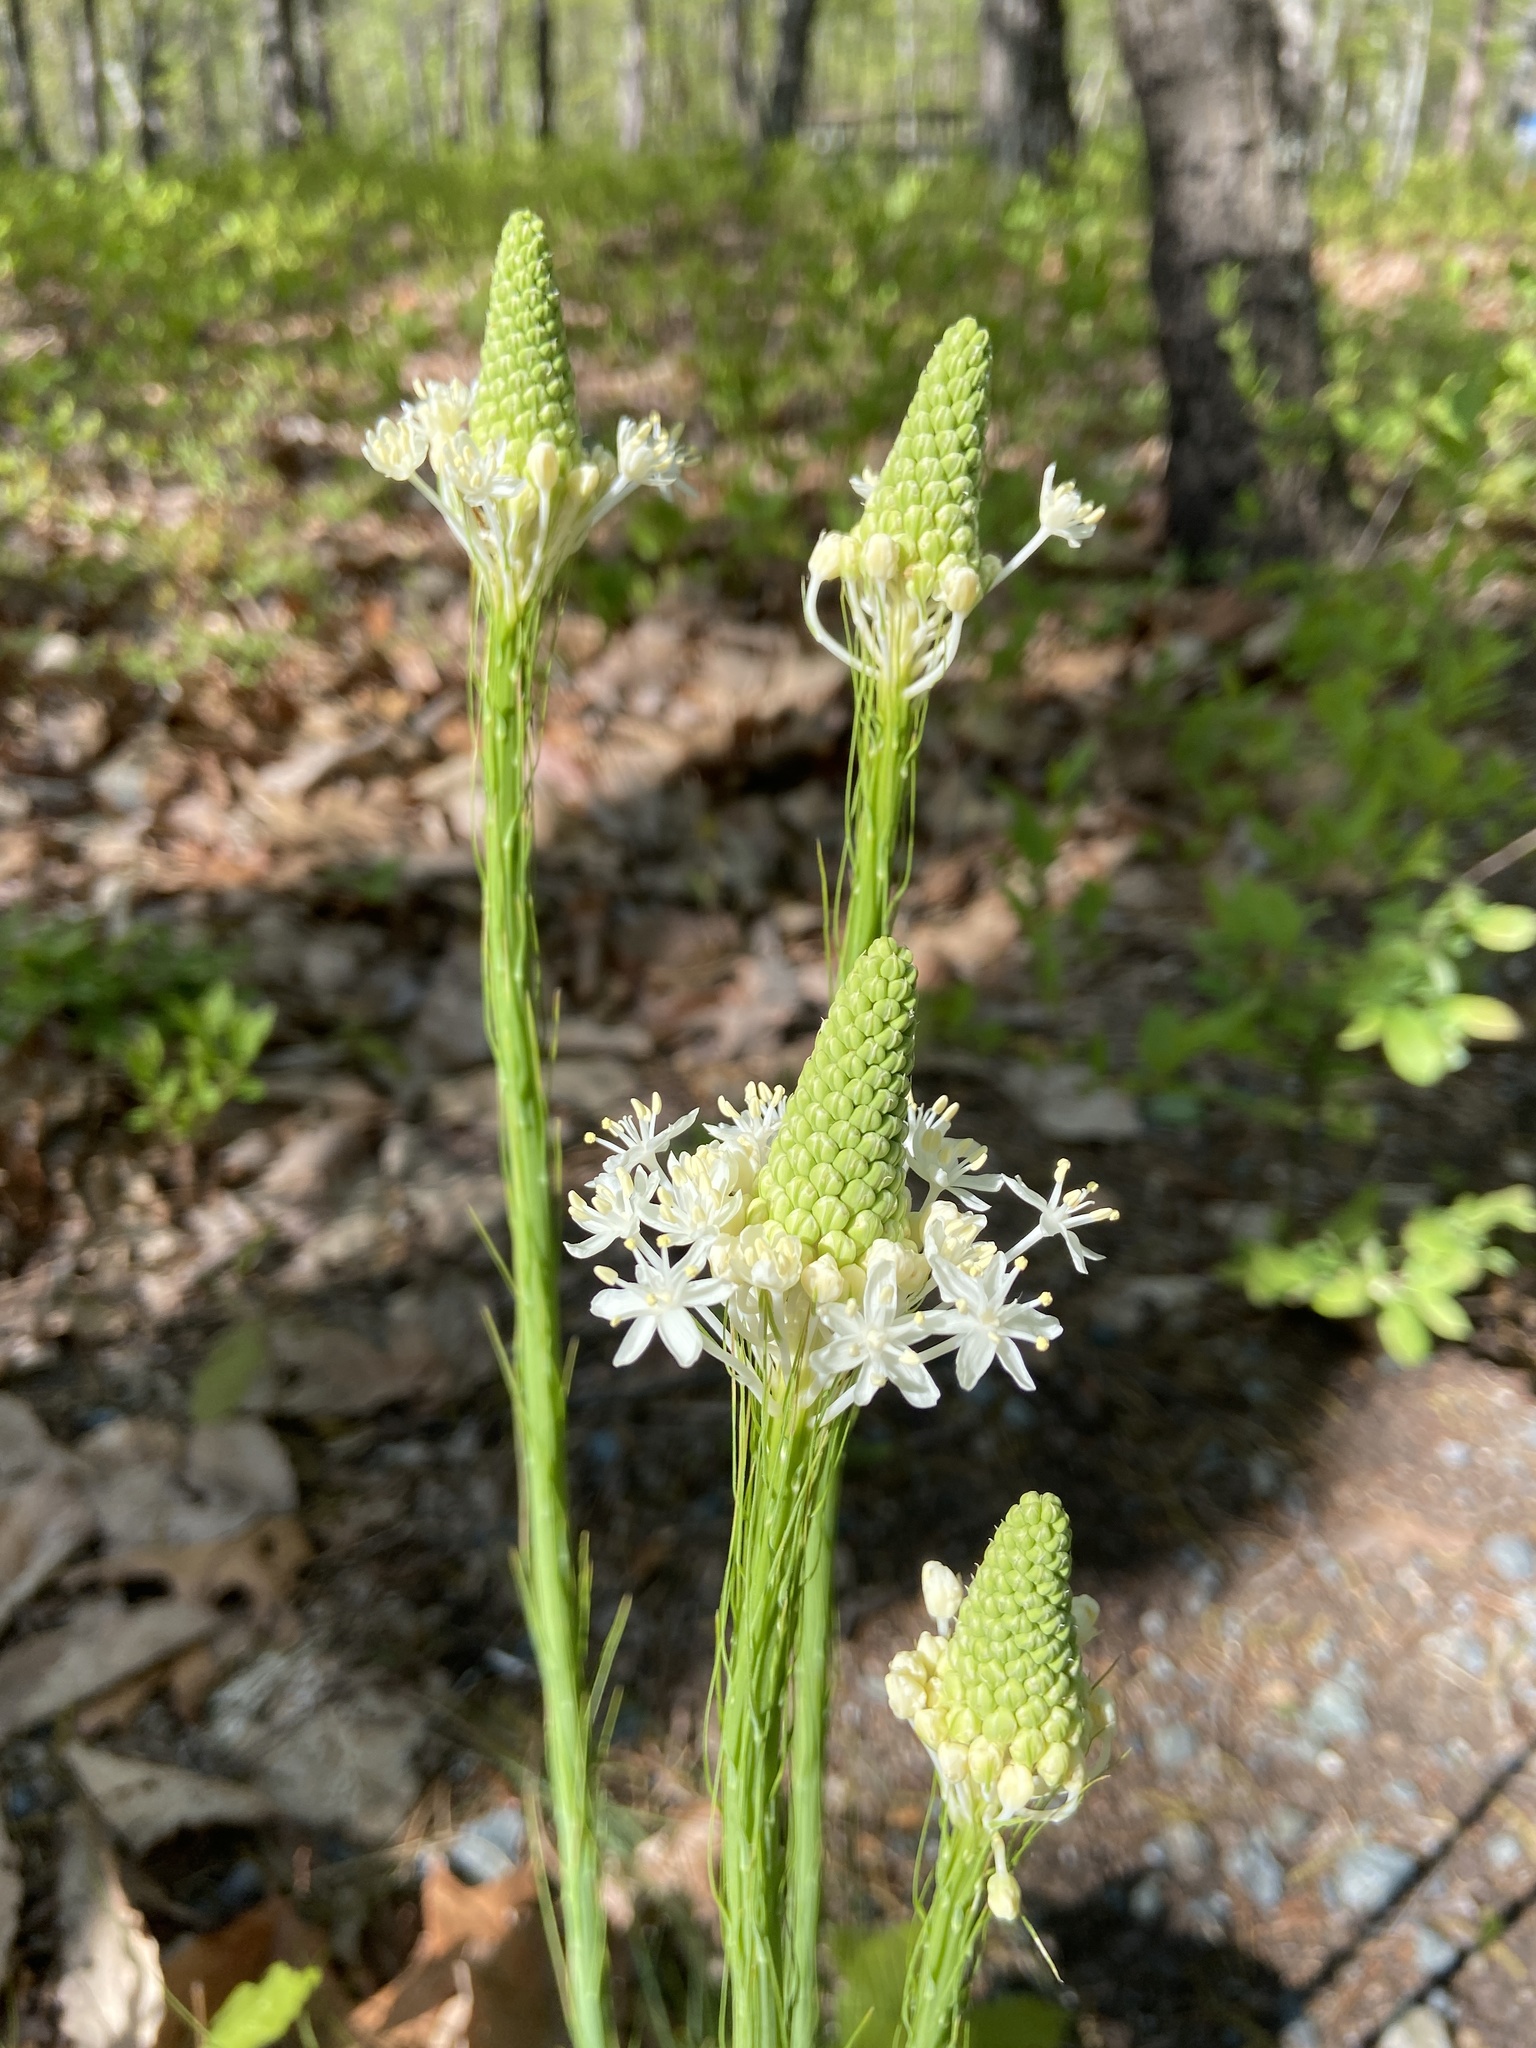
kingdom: Plantae
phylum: Tracheophyta
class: Liliopsida
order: Liliales
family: Melanthiaceae
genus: Xerophyllum
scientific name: Xerophyllum asphodeloides
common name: Mountain-asphodel
